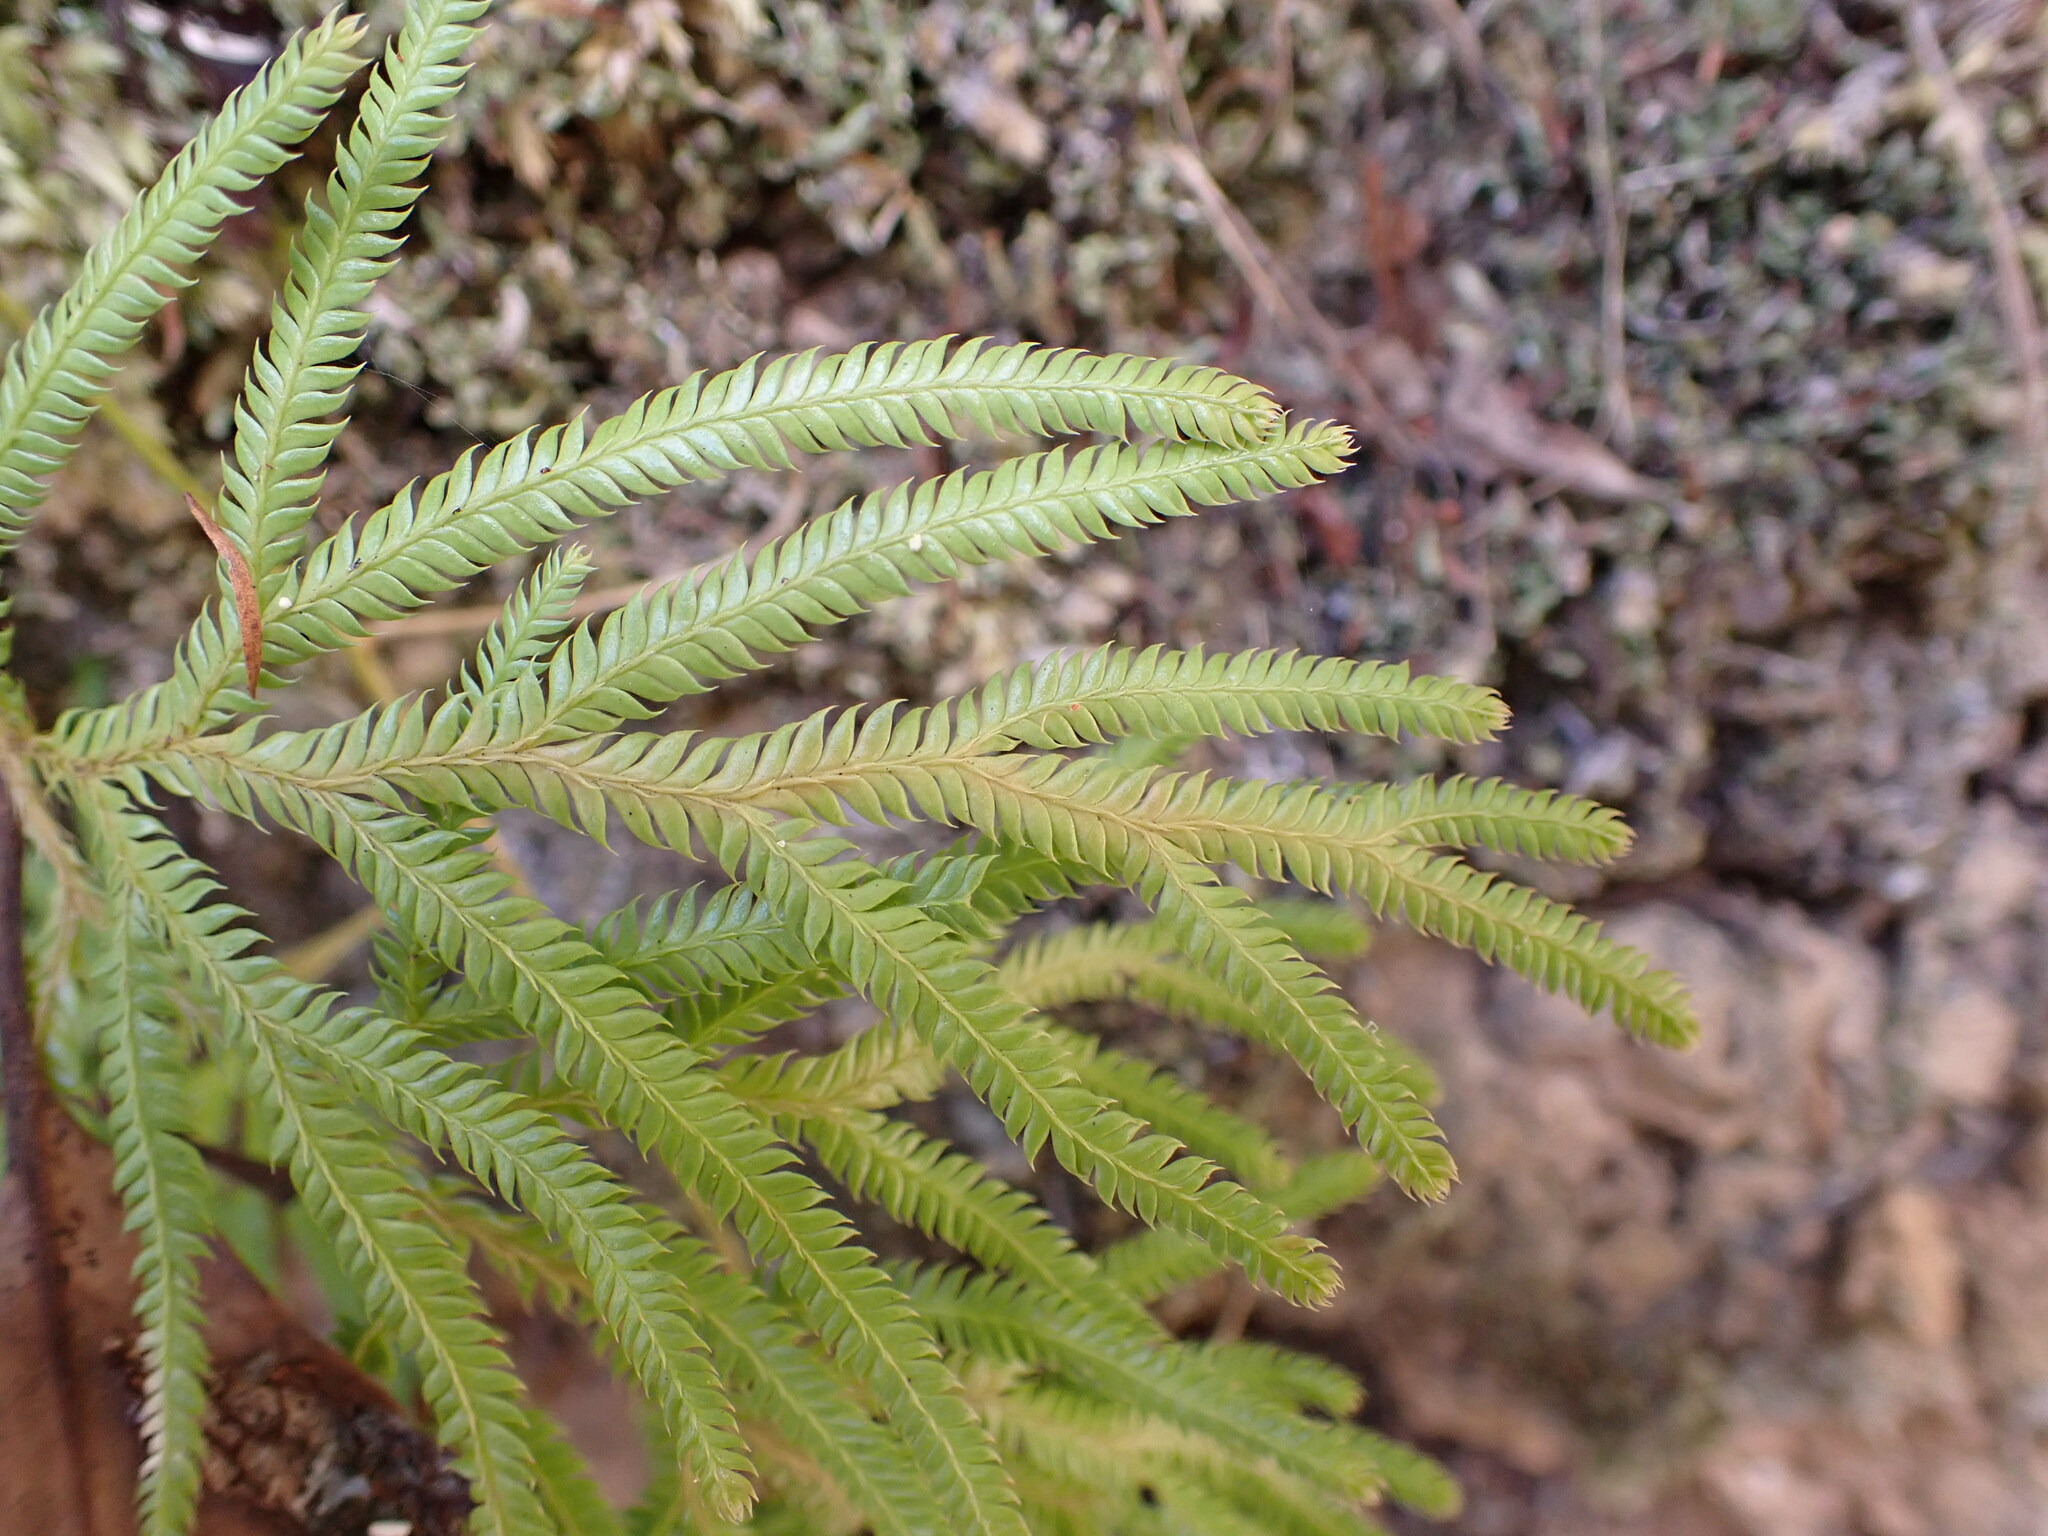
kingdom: Plantae
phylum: Tracheophyta
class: Lycopodiopsida
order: Lycopodiales
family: Lycopodiaceae
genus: Lycopodium
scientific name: Lycopodium volubile
